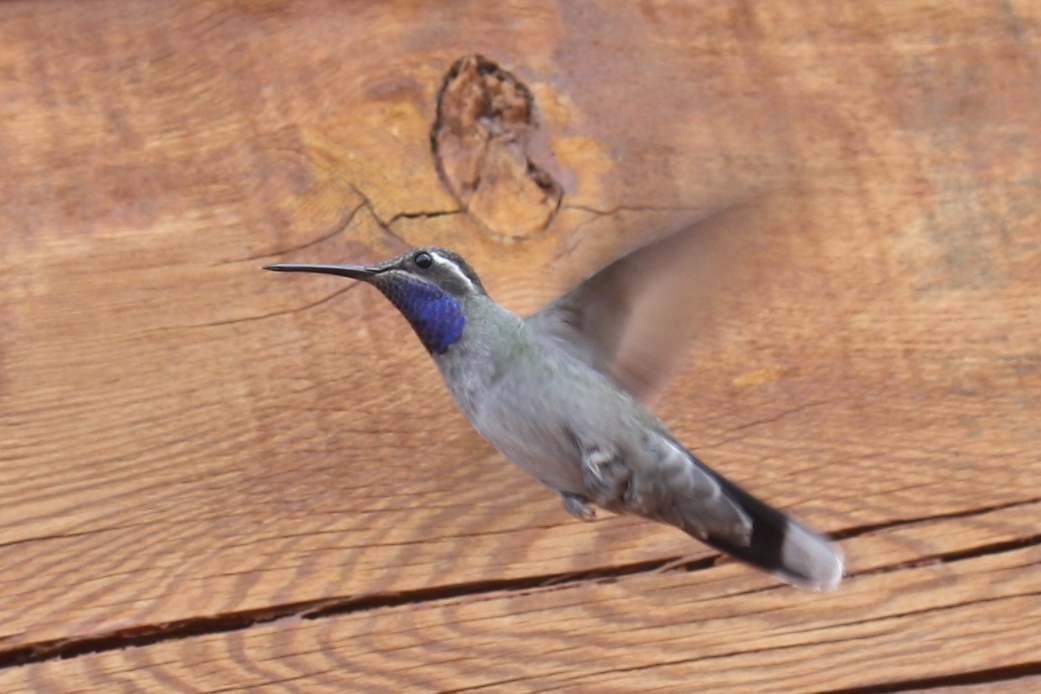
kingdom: Animalia
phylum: Chordata
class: Aves
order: Apodiformes
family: Trochilidae
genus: Lampornis
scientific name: Lampornis clemenciae
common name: Blue-throated mountaingem
